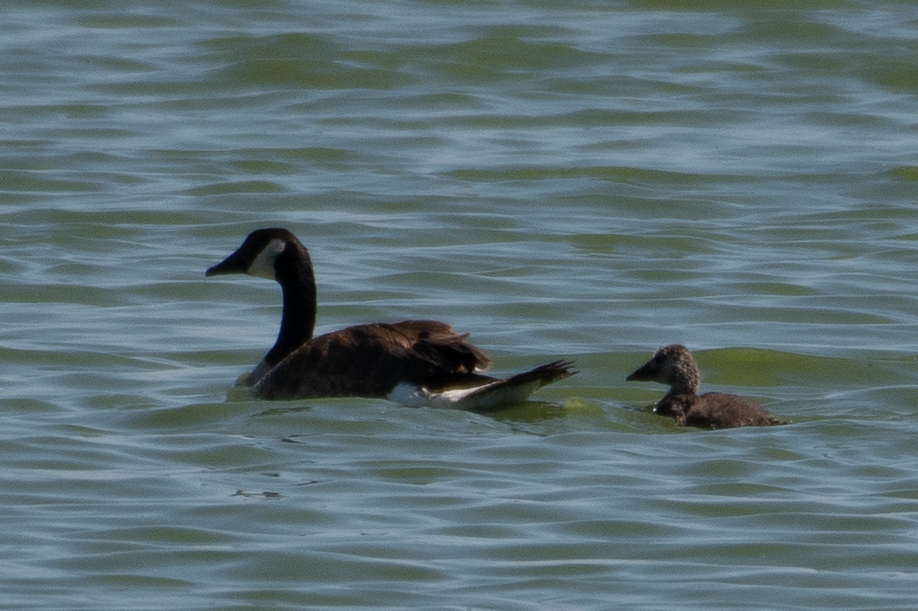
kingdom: Animalia
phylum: Chordata
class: Aves
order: Anseriformes
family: Anatidae
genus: Branta
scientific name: Branta canadensis
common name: Canada goose
